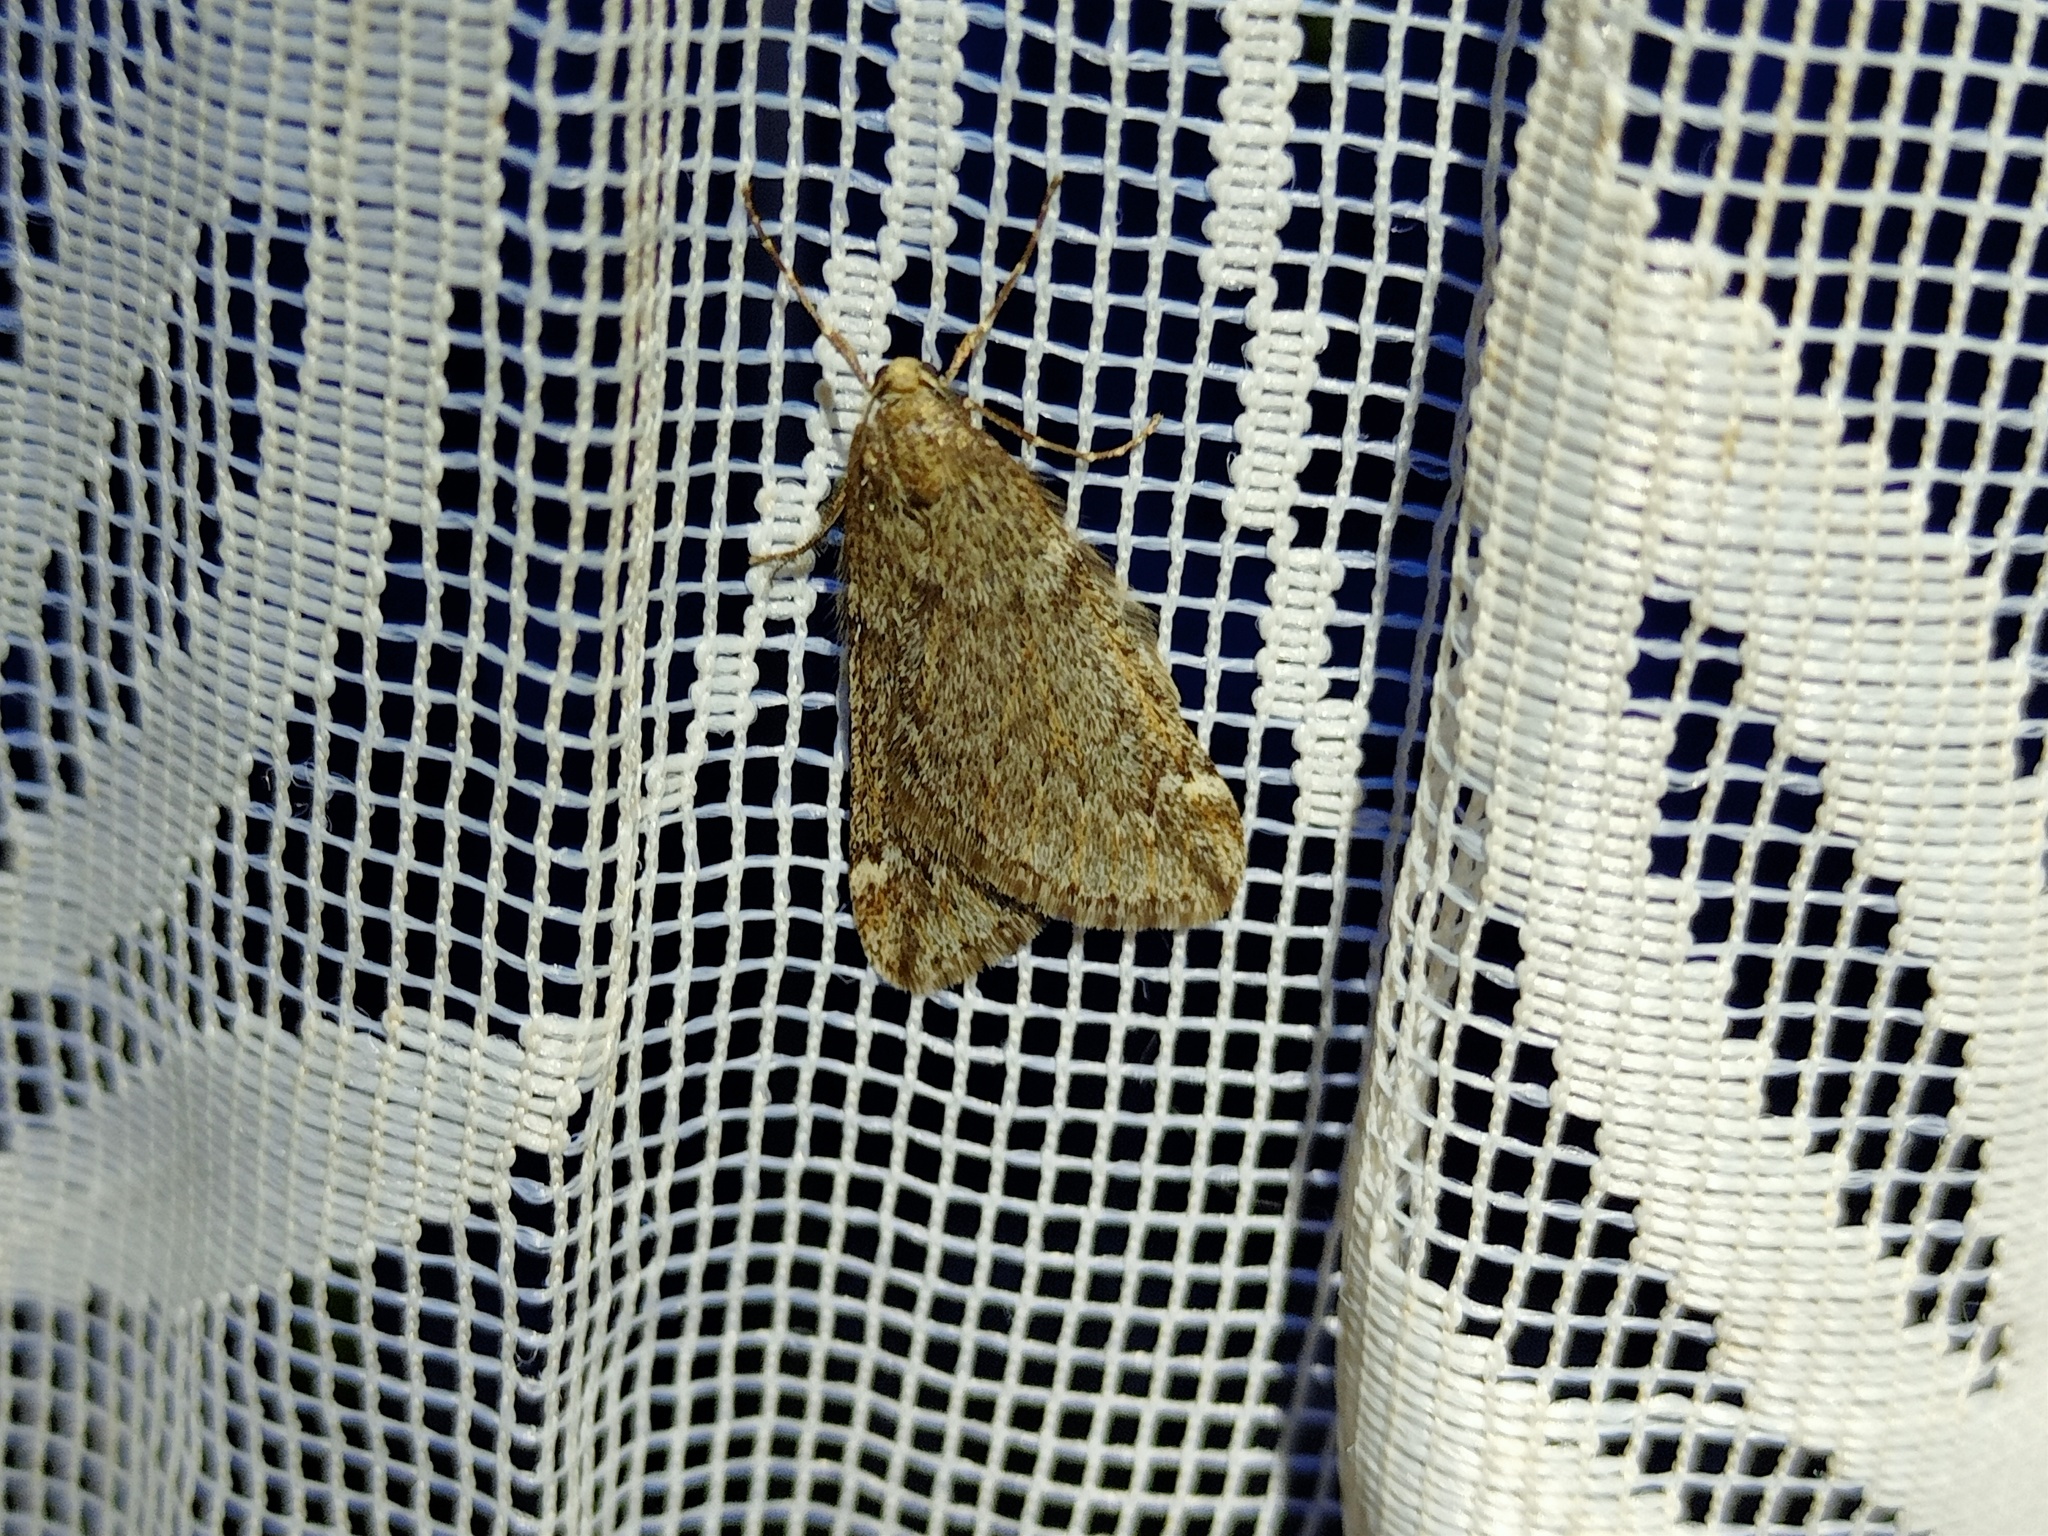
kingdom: Animalia
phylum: Arthropoda
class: Insecta
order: Lepidoptera
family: Geometridae
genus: Alsophila
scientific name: Alsophila aescularia
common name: March moth
